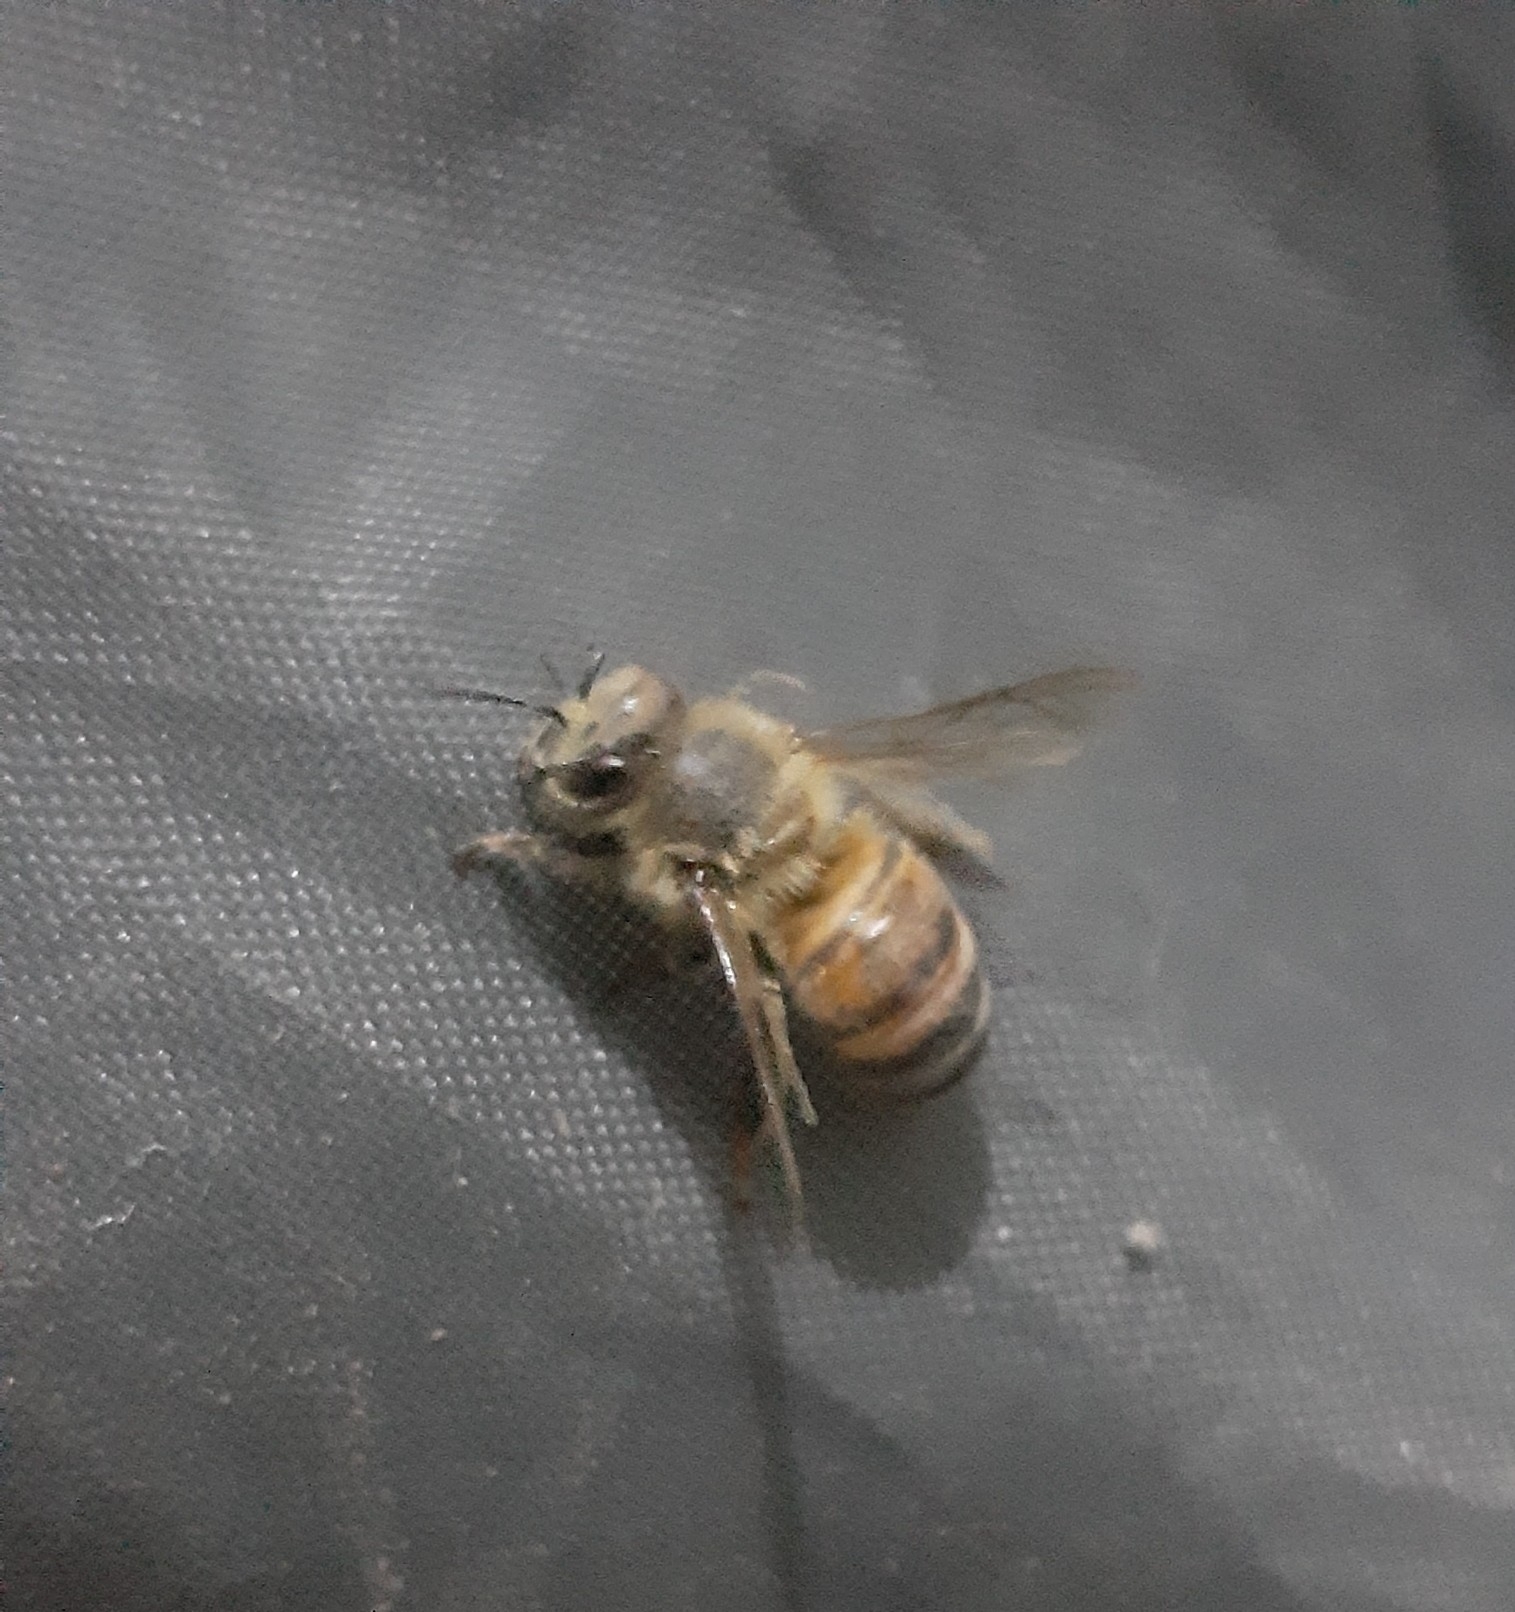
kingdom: Animalia
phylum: Arthropoda
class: Insecta
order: Hymenoptera
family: Apidae
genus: Apis
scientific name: Apis mellifera
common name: Honey bee
